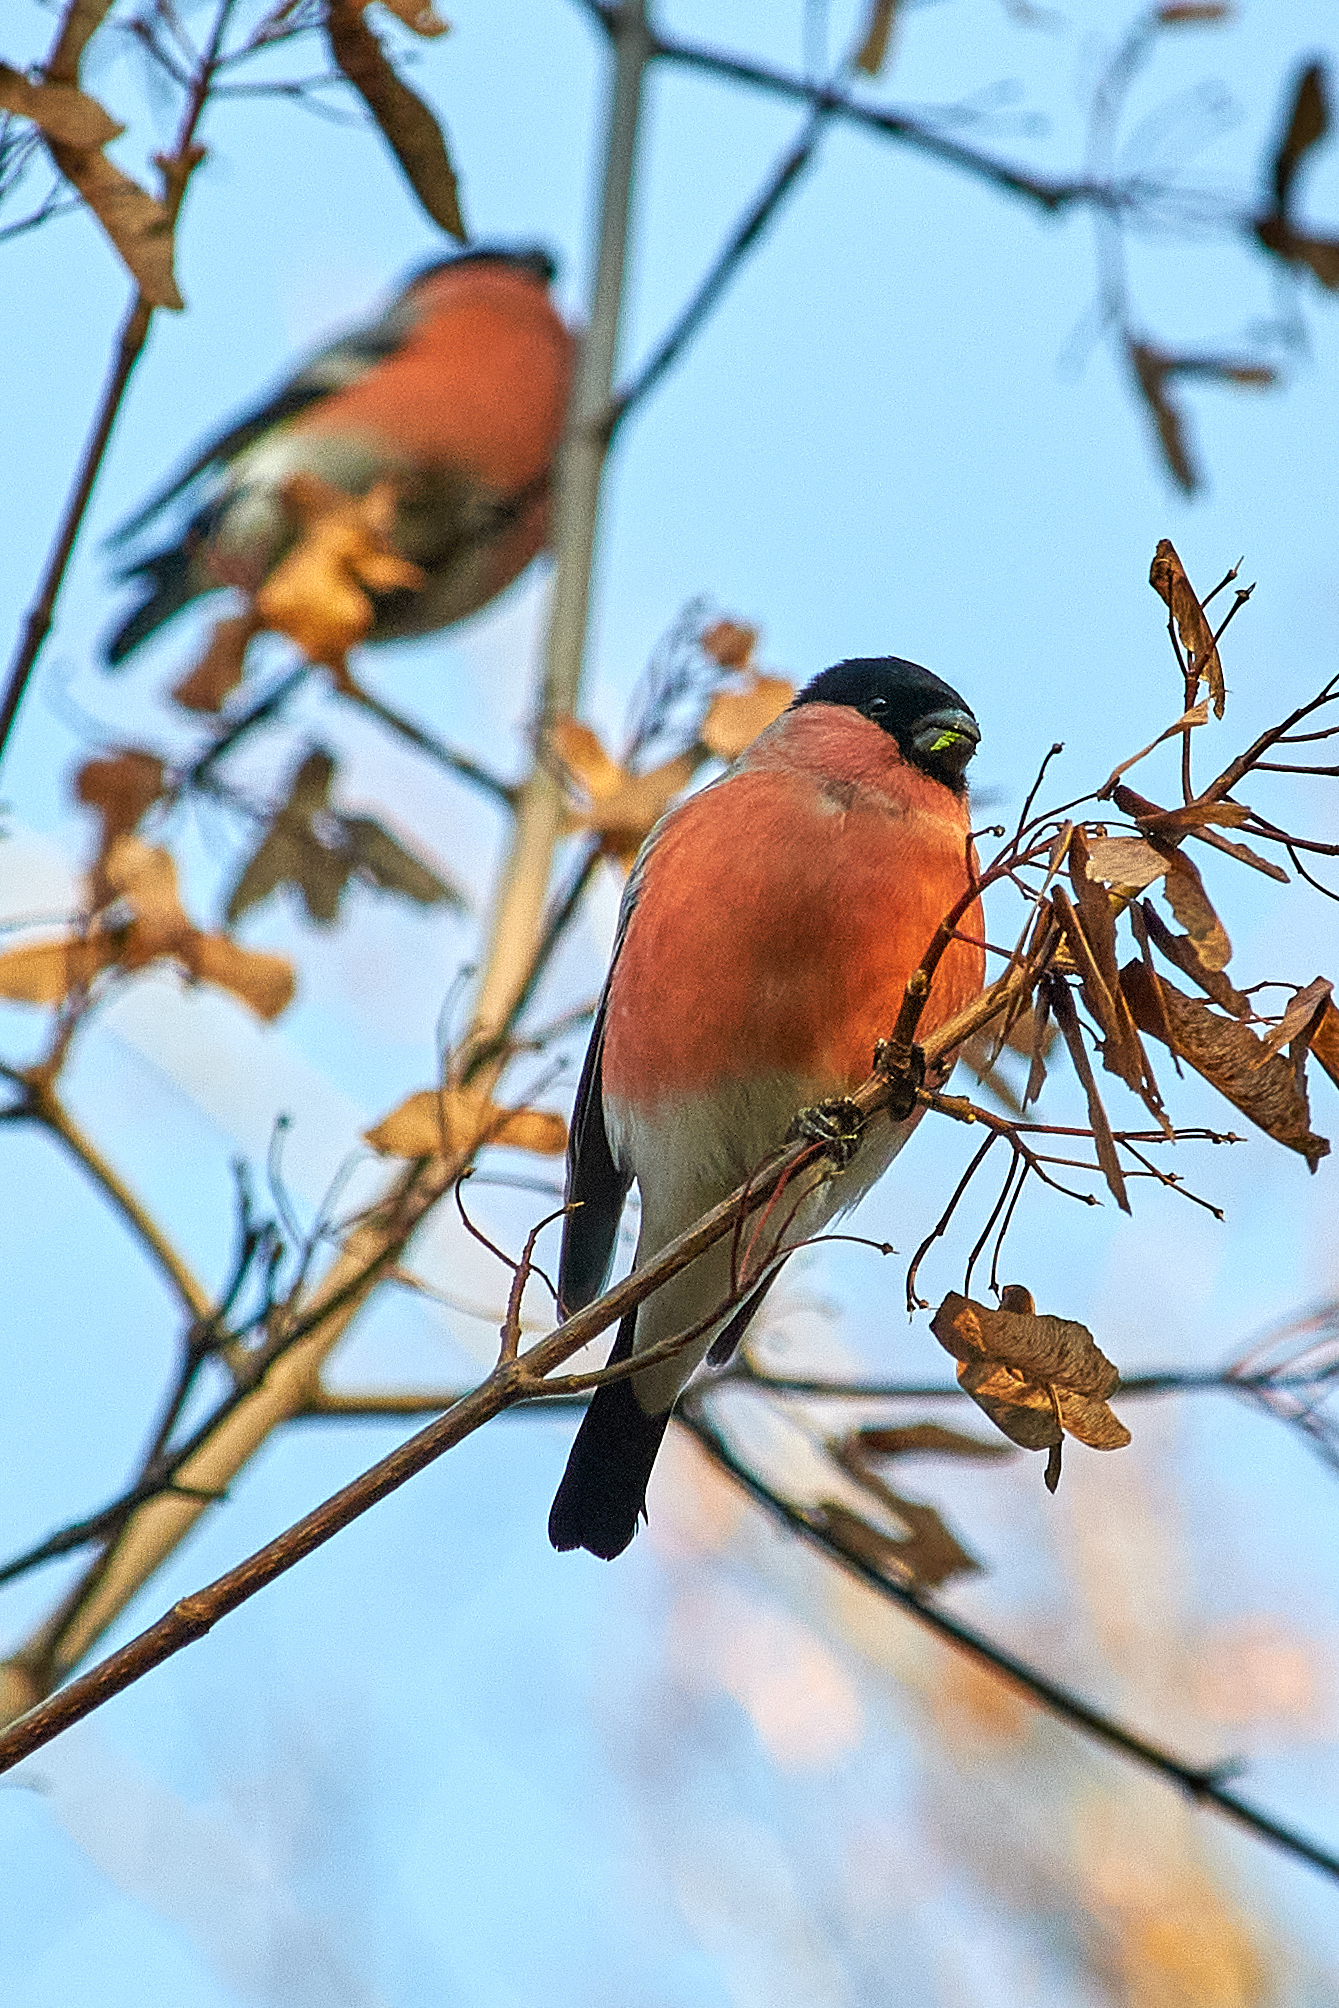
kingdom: Animalia
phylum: Chordata
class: Aves
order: Passeriformes
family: Fringillidae
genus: Pyrrhula
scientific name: Pyrrhula pyrrhula
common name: Eurasian bullfinch
